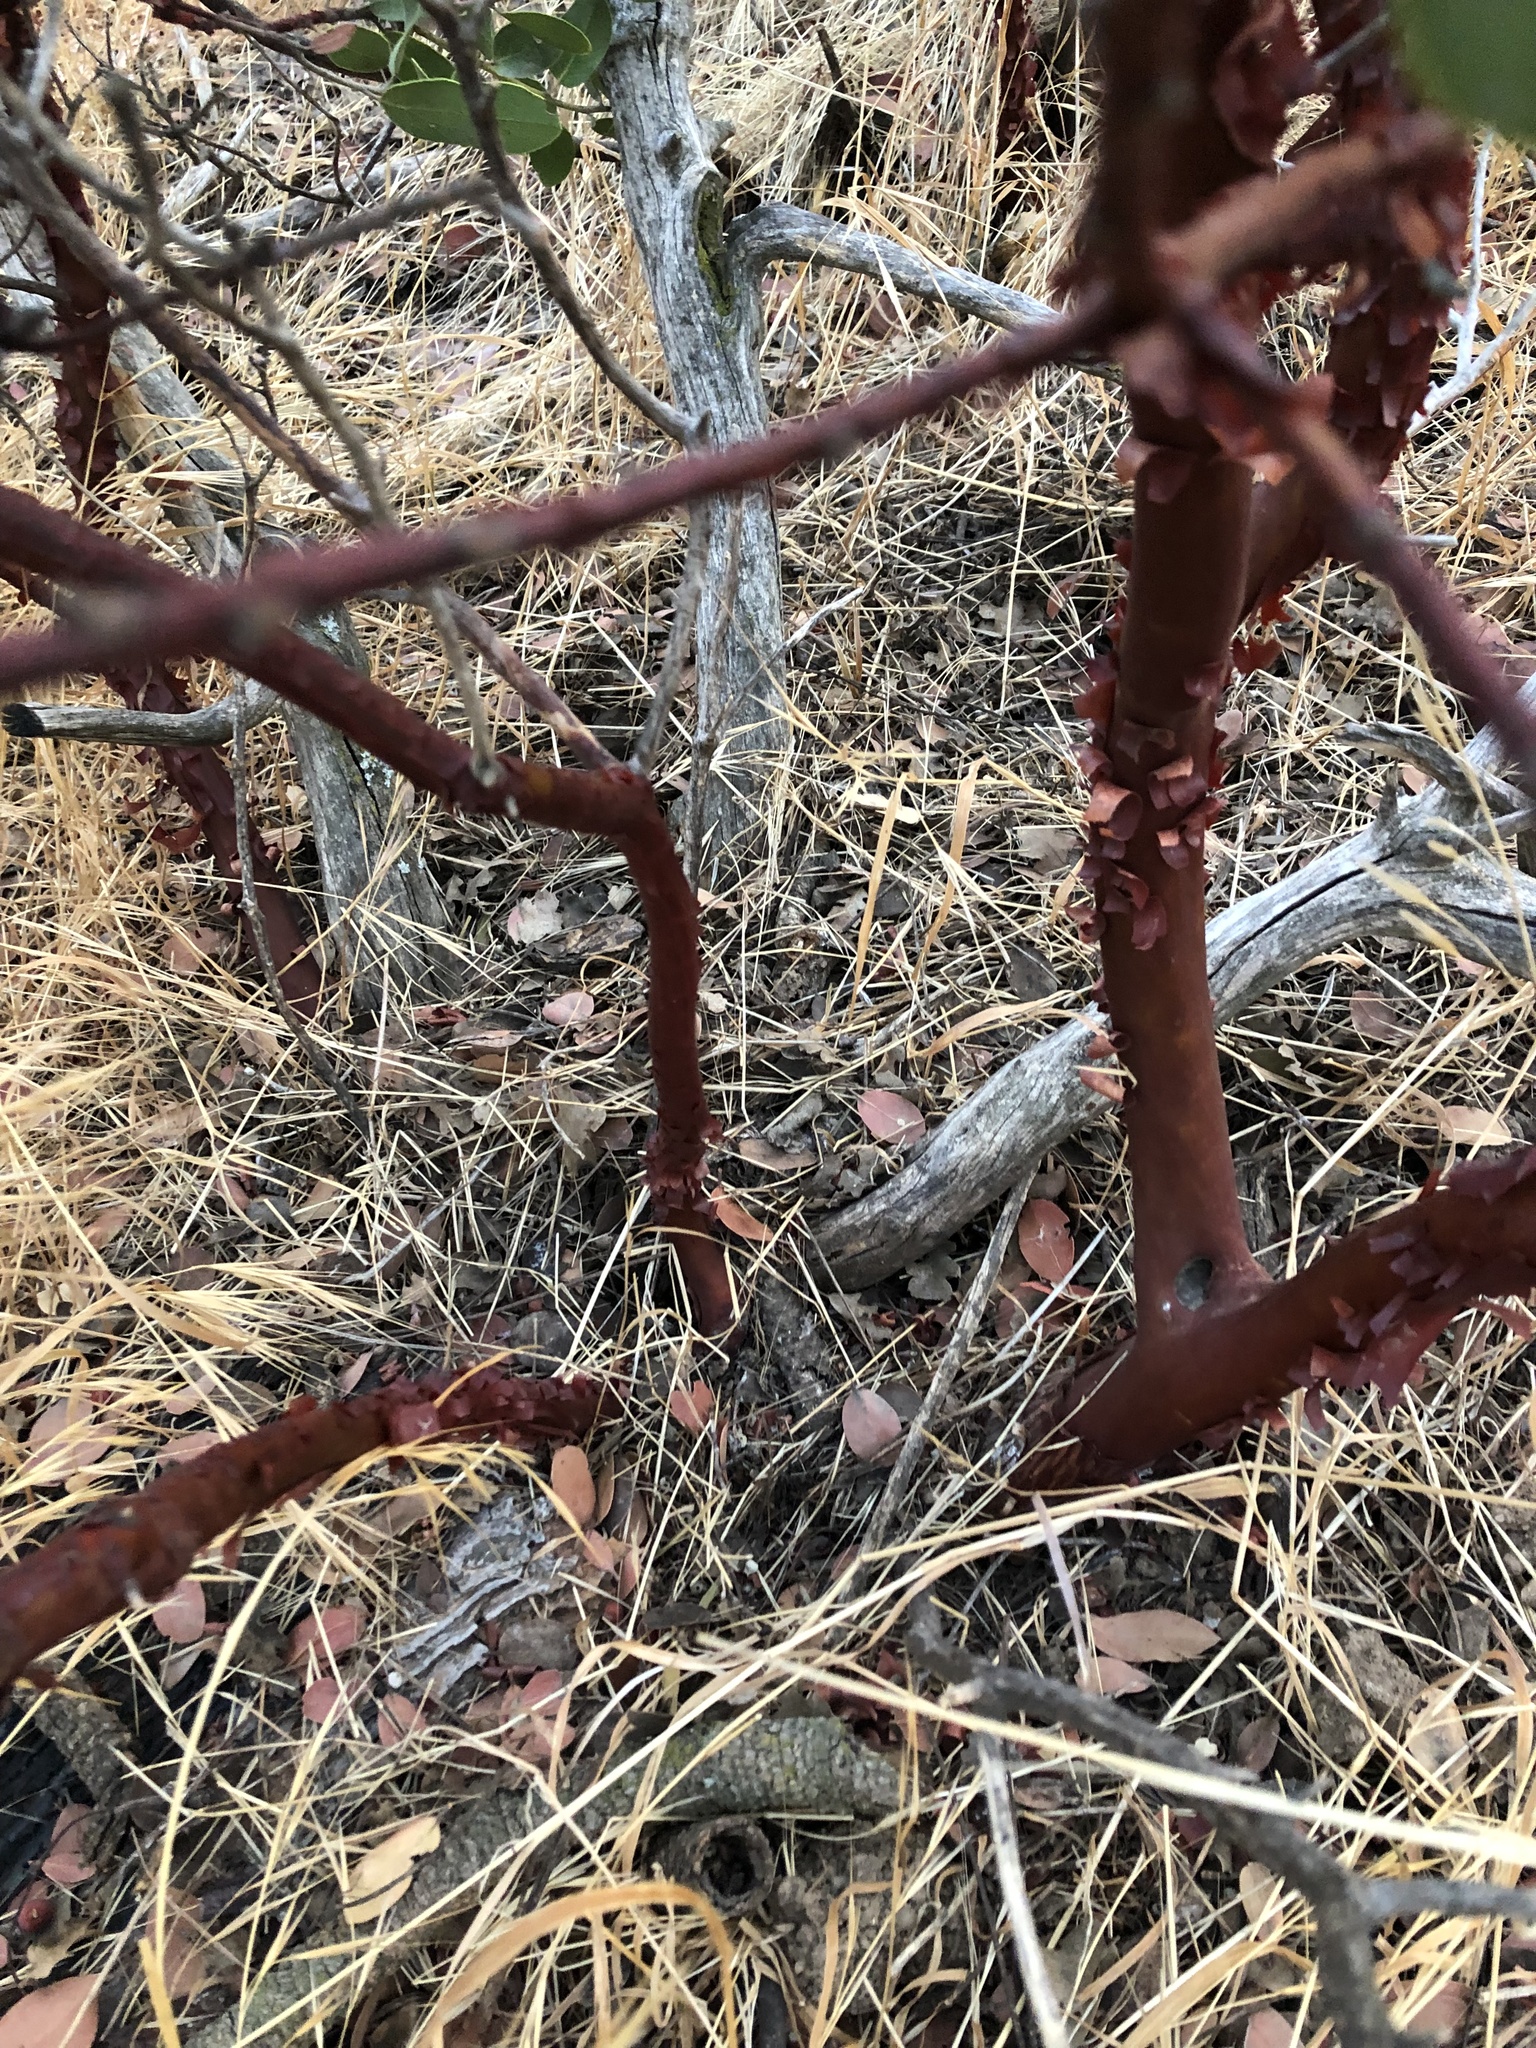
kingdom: Plantae
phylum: Tracheophyta
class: Magnoliopsida
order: Ericales
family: Ericaceae
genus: Arctostaphylos
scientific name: Arctostaphylos glandulosa
